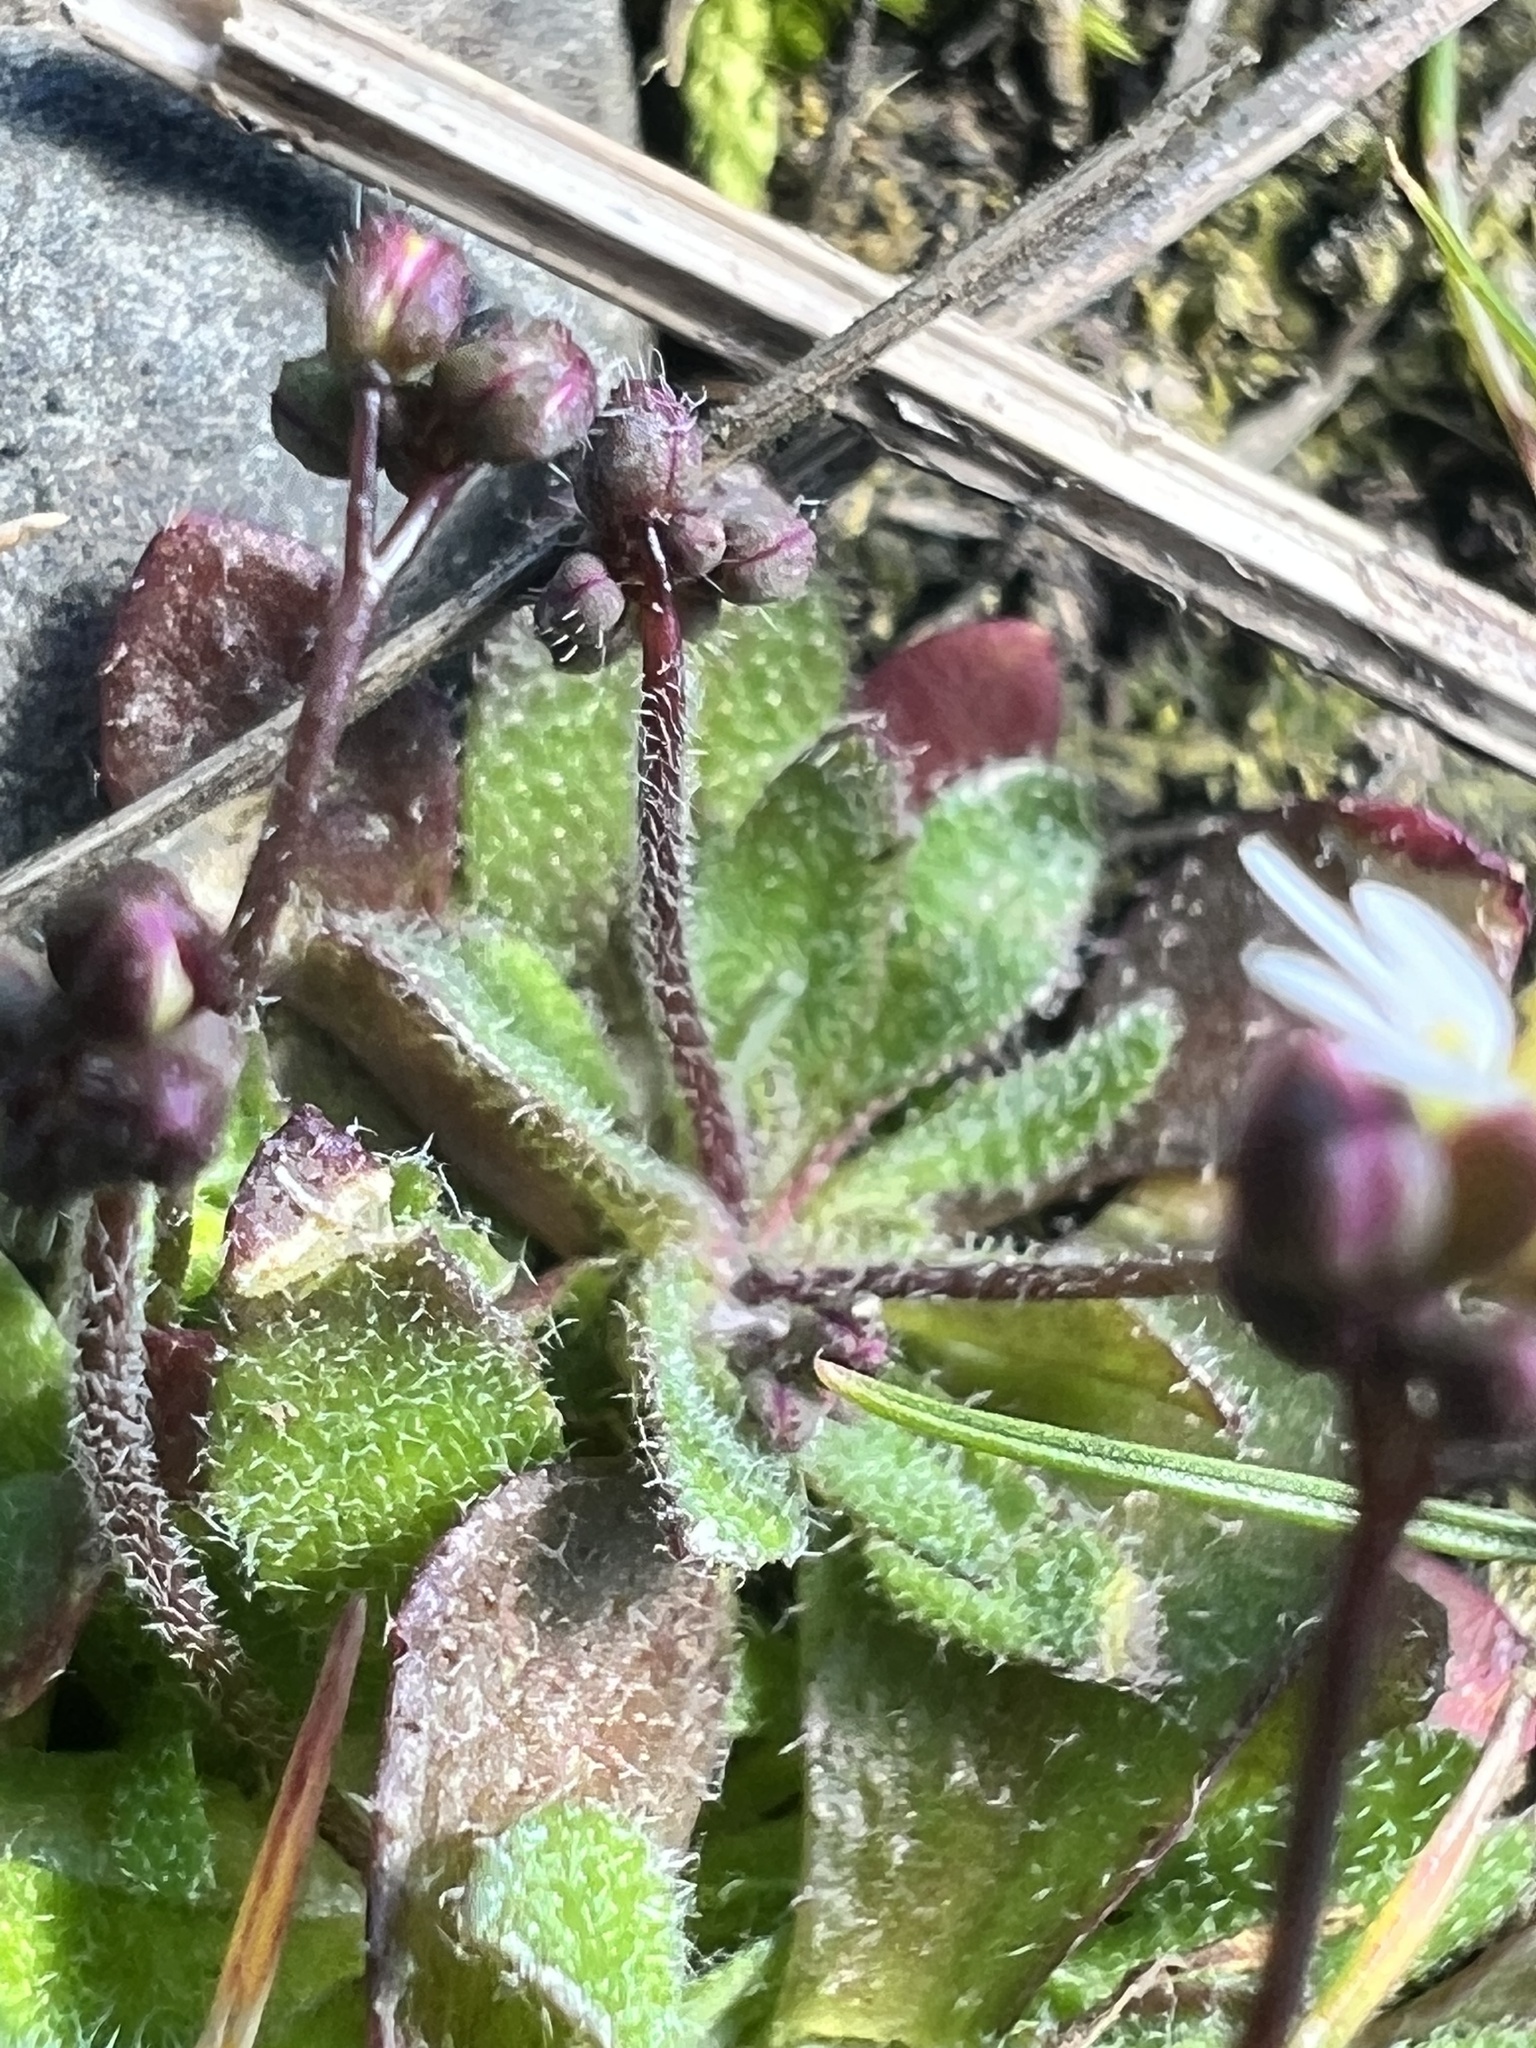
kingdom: Plantae
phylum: Tracheophyta
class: Magnoliopsida
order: Brassicales
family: Brassicaceae
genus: Draba
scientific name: Draba verna
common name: Spring draba
